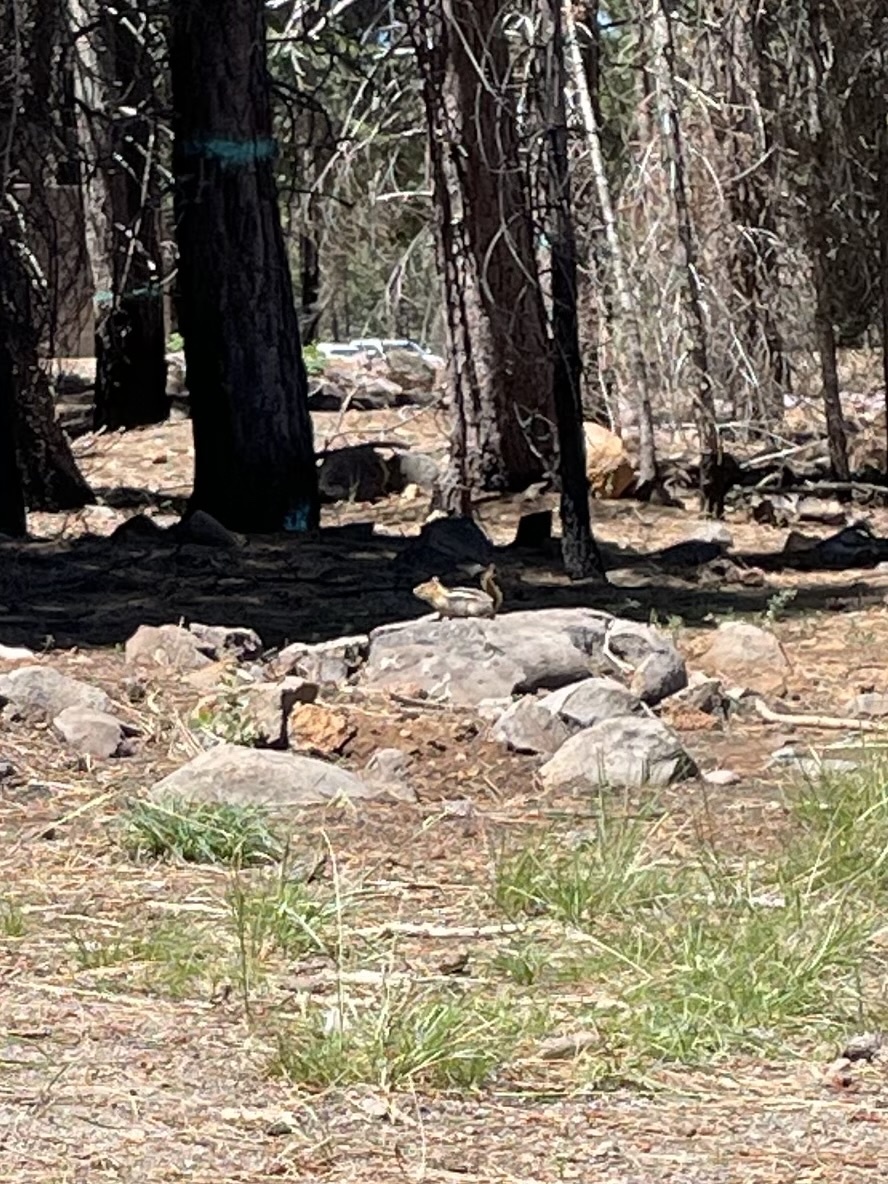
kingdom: Animalia
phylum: Chordata
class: Mammalia
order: Rodentia
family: Sciuridae
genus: Callospermophilus
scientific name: Callospermophilus lateralis
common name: Golden-mantled ground squirrel
